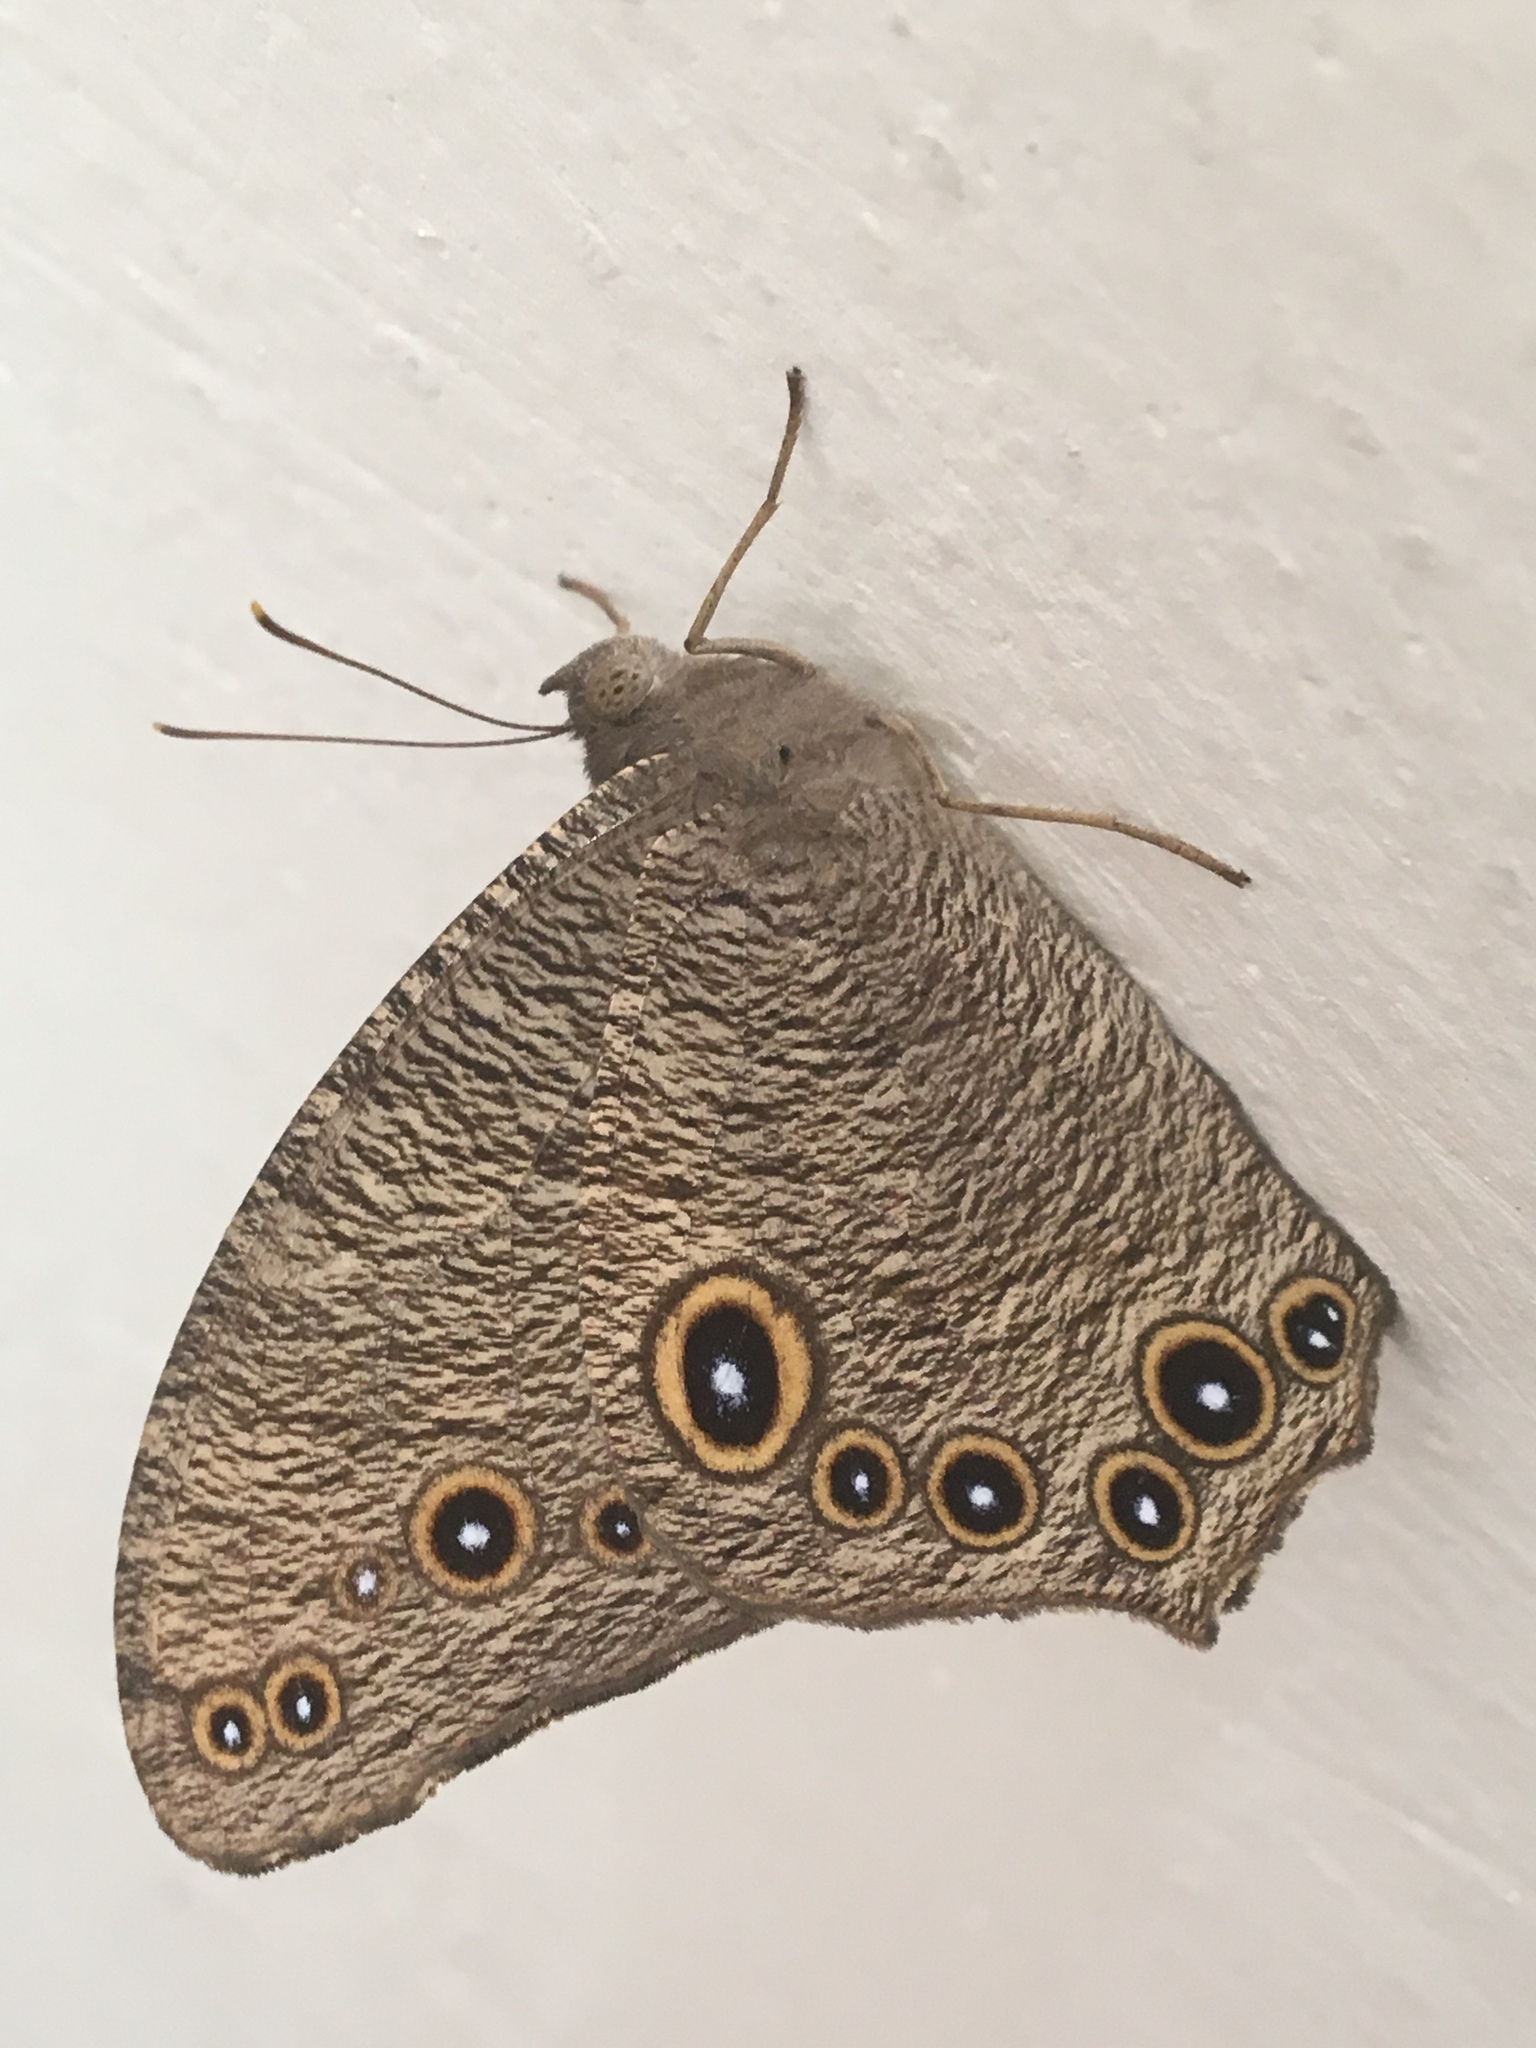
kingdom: Animalia
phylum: Arthropoda
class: Insecta
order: Lepidoptera
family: Nymphalidae
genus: Melanitis
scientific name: Melanitis leda
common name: Twilight brown
